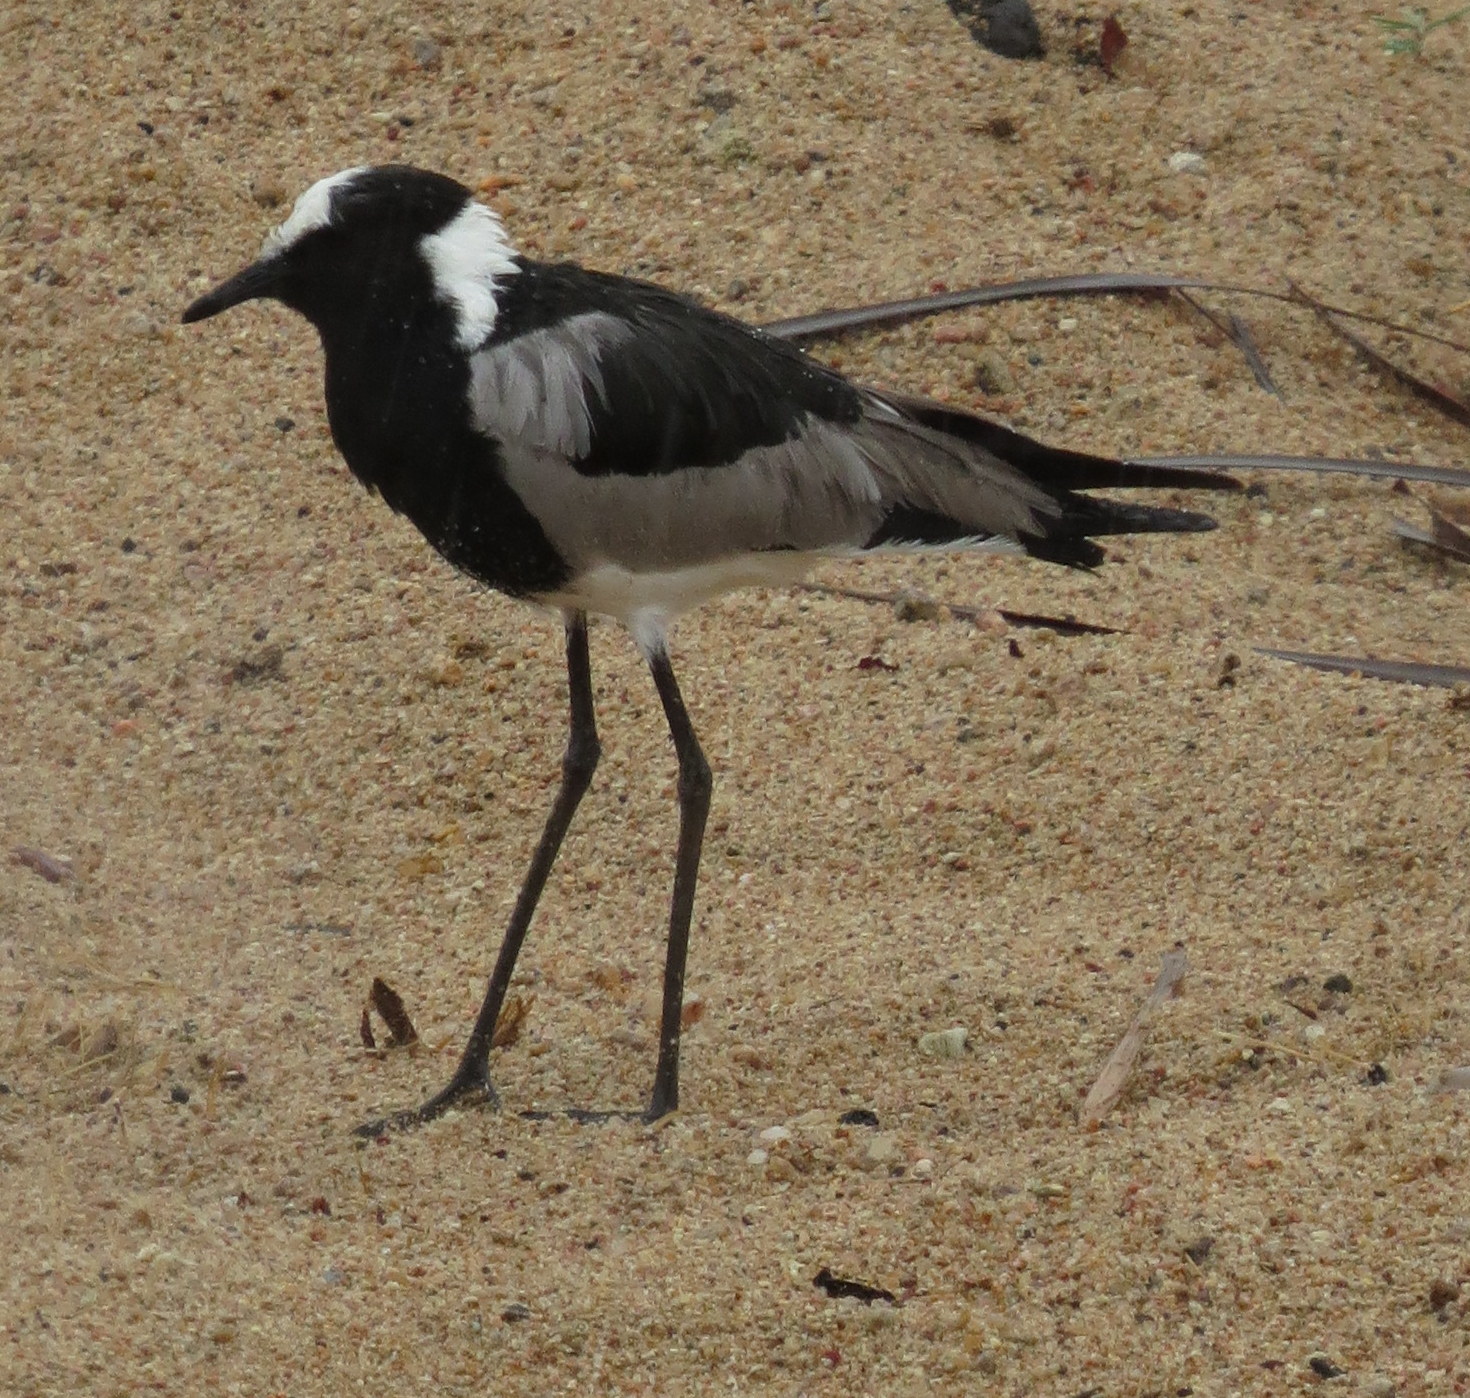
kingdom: Animalia
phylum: Chordata
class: Aves
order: Charadriiformes
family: Charadriidae
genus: Vanellus
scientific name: Vanellus armatus
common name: Blacksmith lapwing
